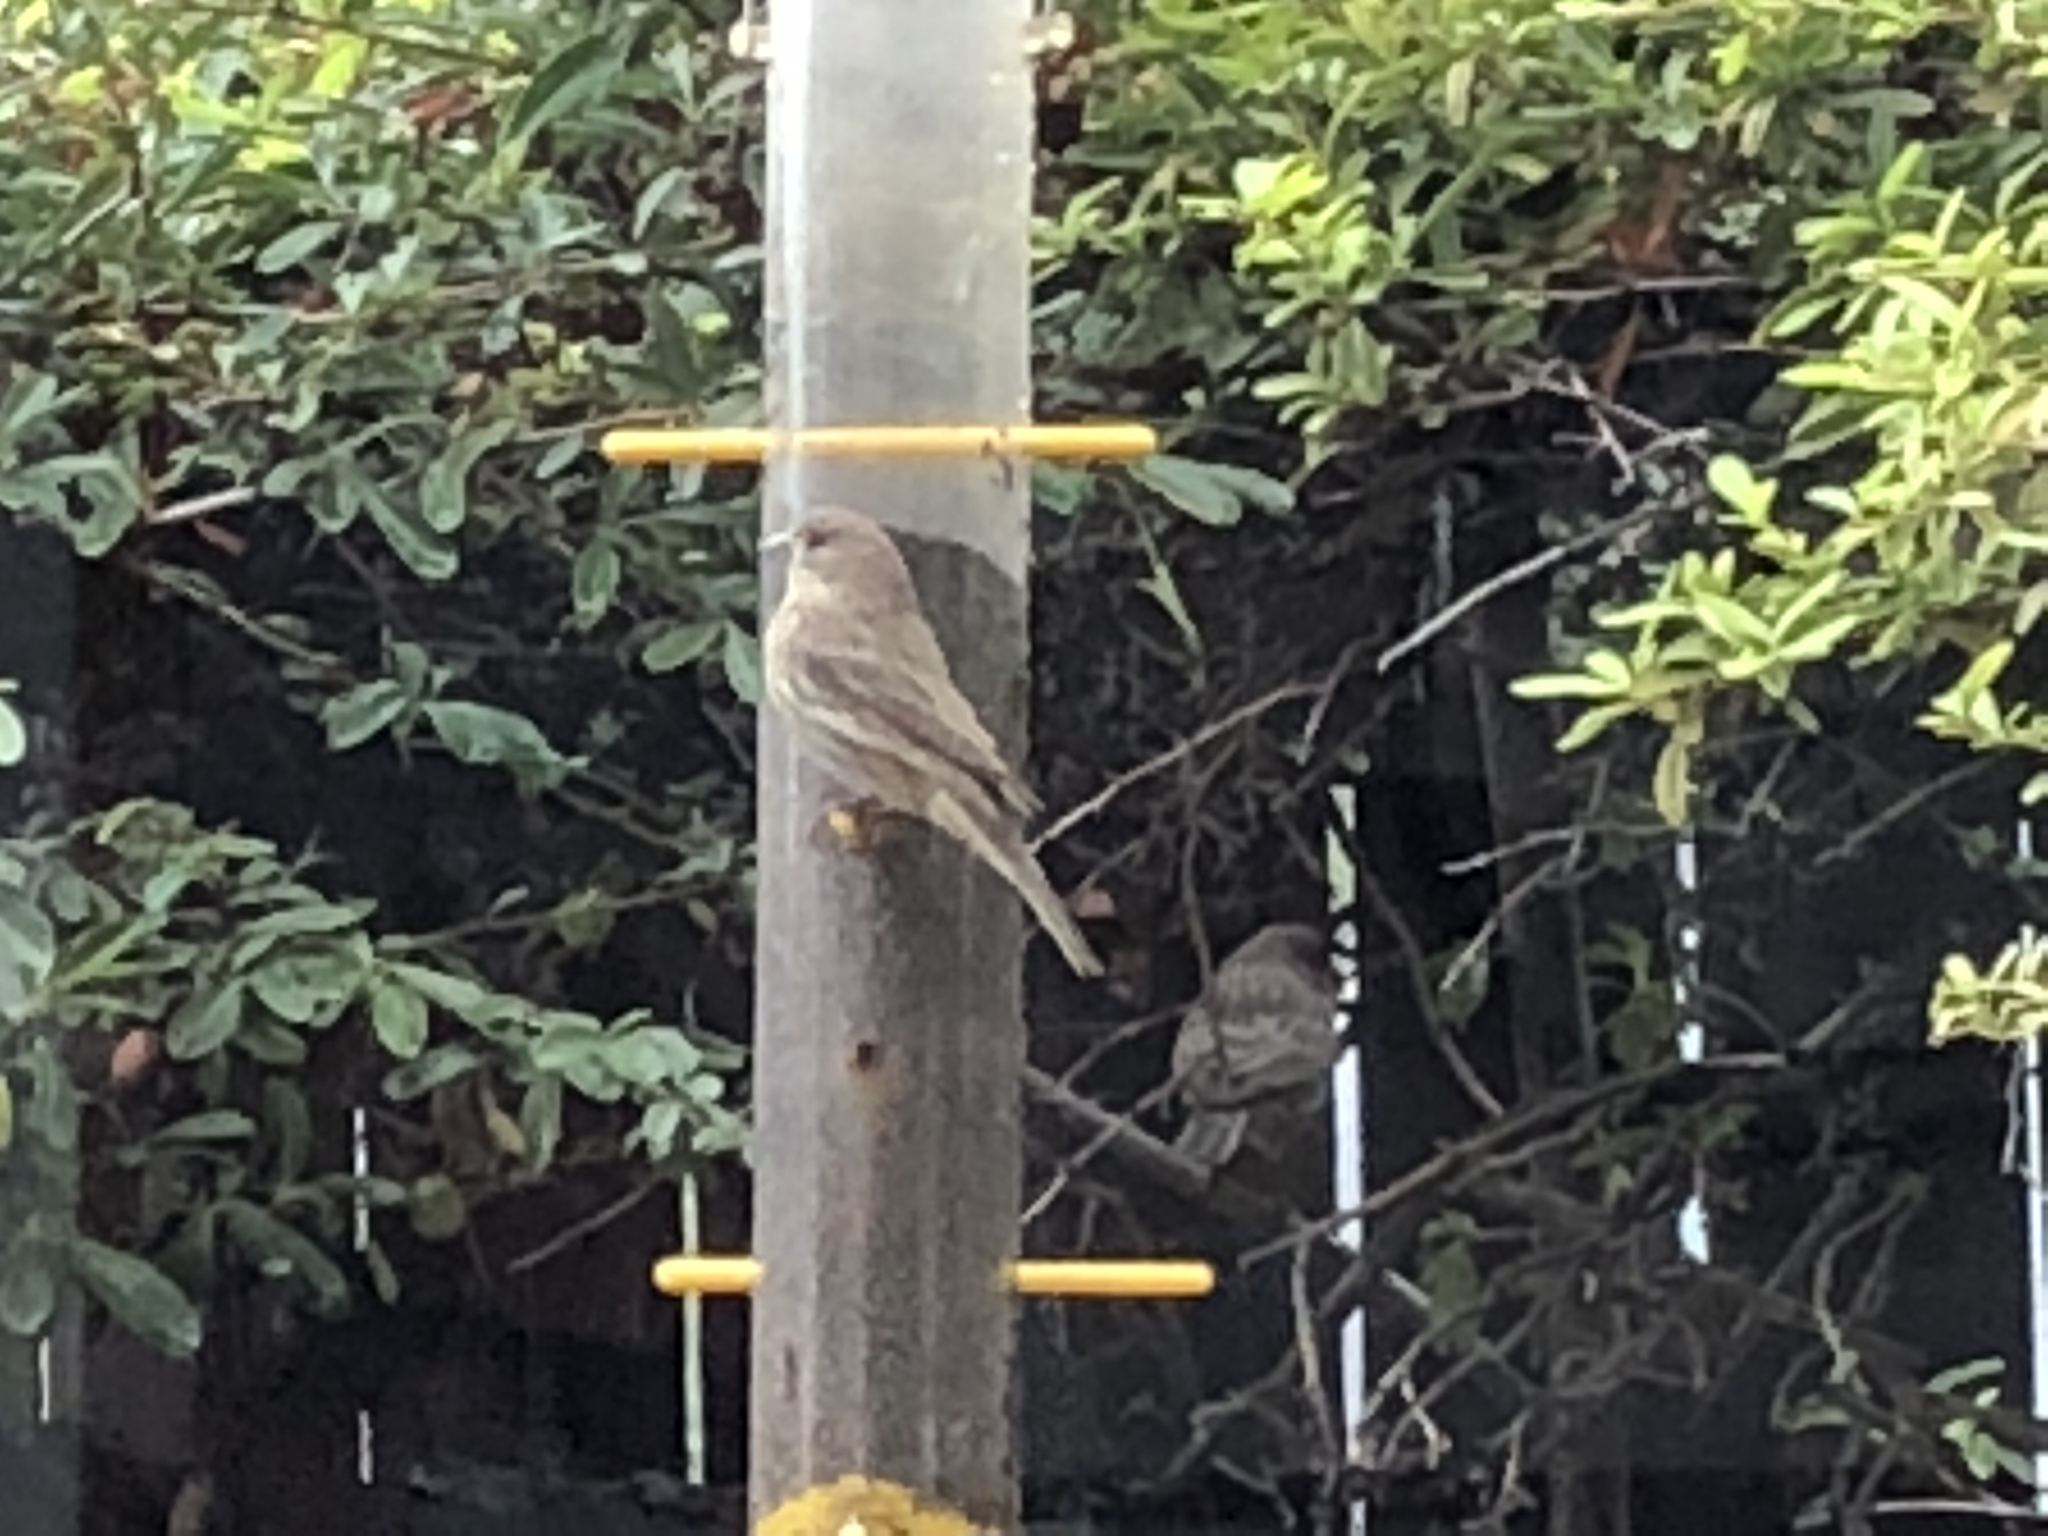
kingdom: Animalia
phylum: Chordata
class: Aves
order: Passeriformes
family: Fringillidae
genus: Haemorhous
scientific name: Haemorhous mexicanus
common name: House finch
